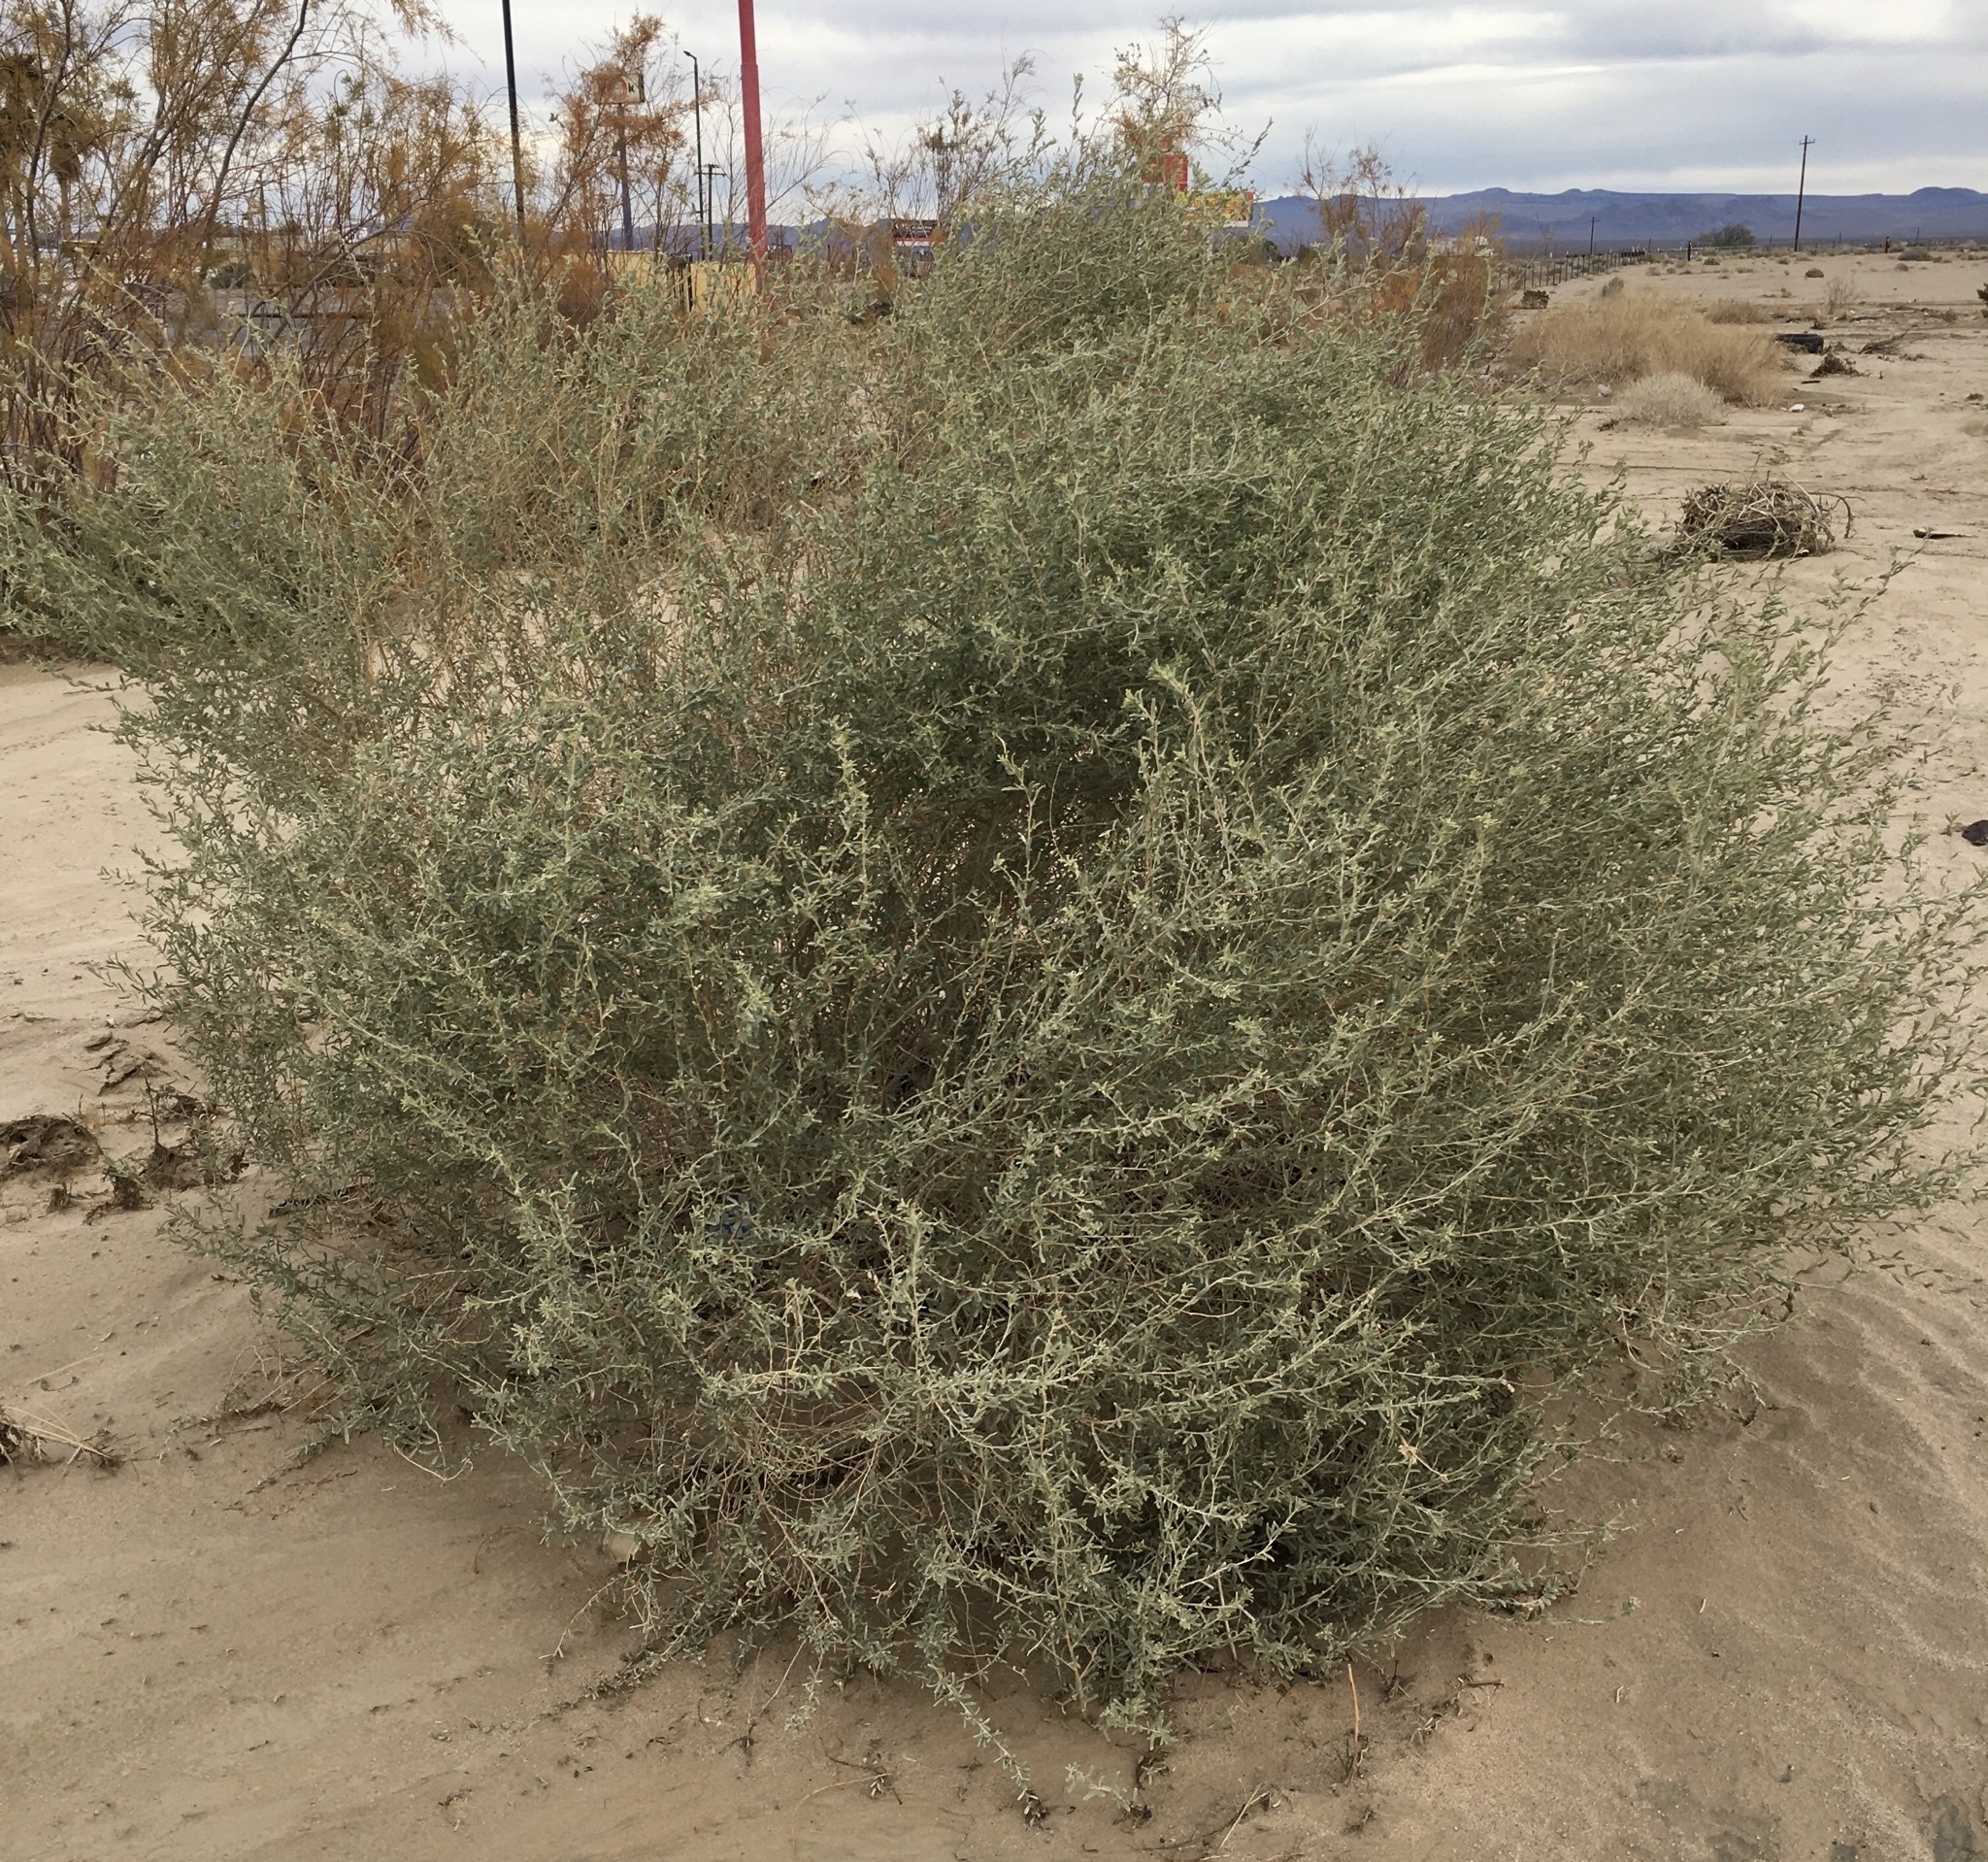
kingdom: Plantae
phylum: Tracheophyta
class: Magnoliopsida
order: Caryophyllales
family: Amaranthaceae
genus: Atriplex
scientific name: Atriplex canescens
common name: Four-wing saltbush
